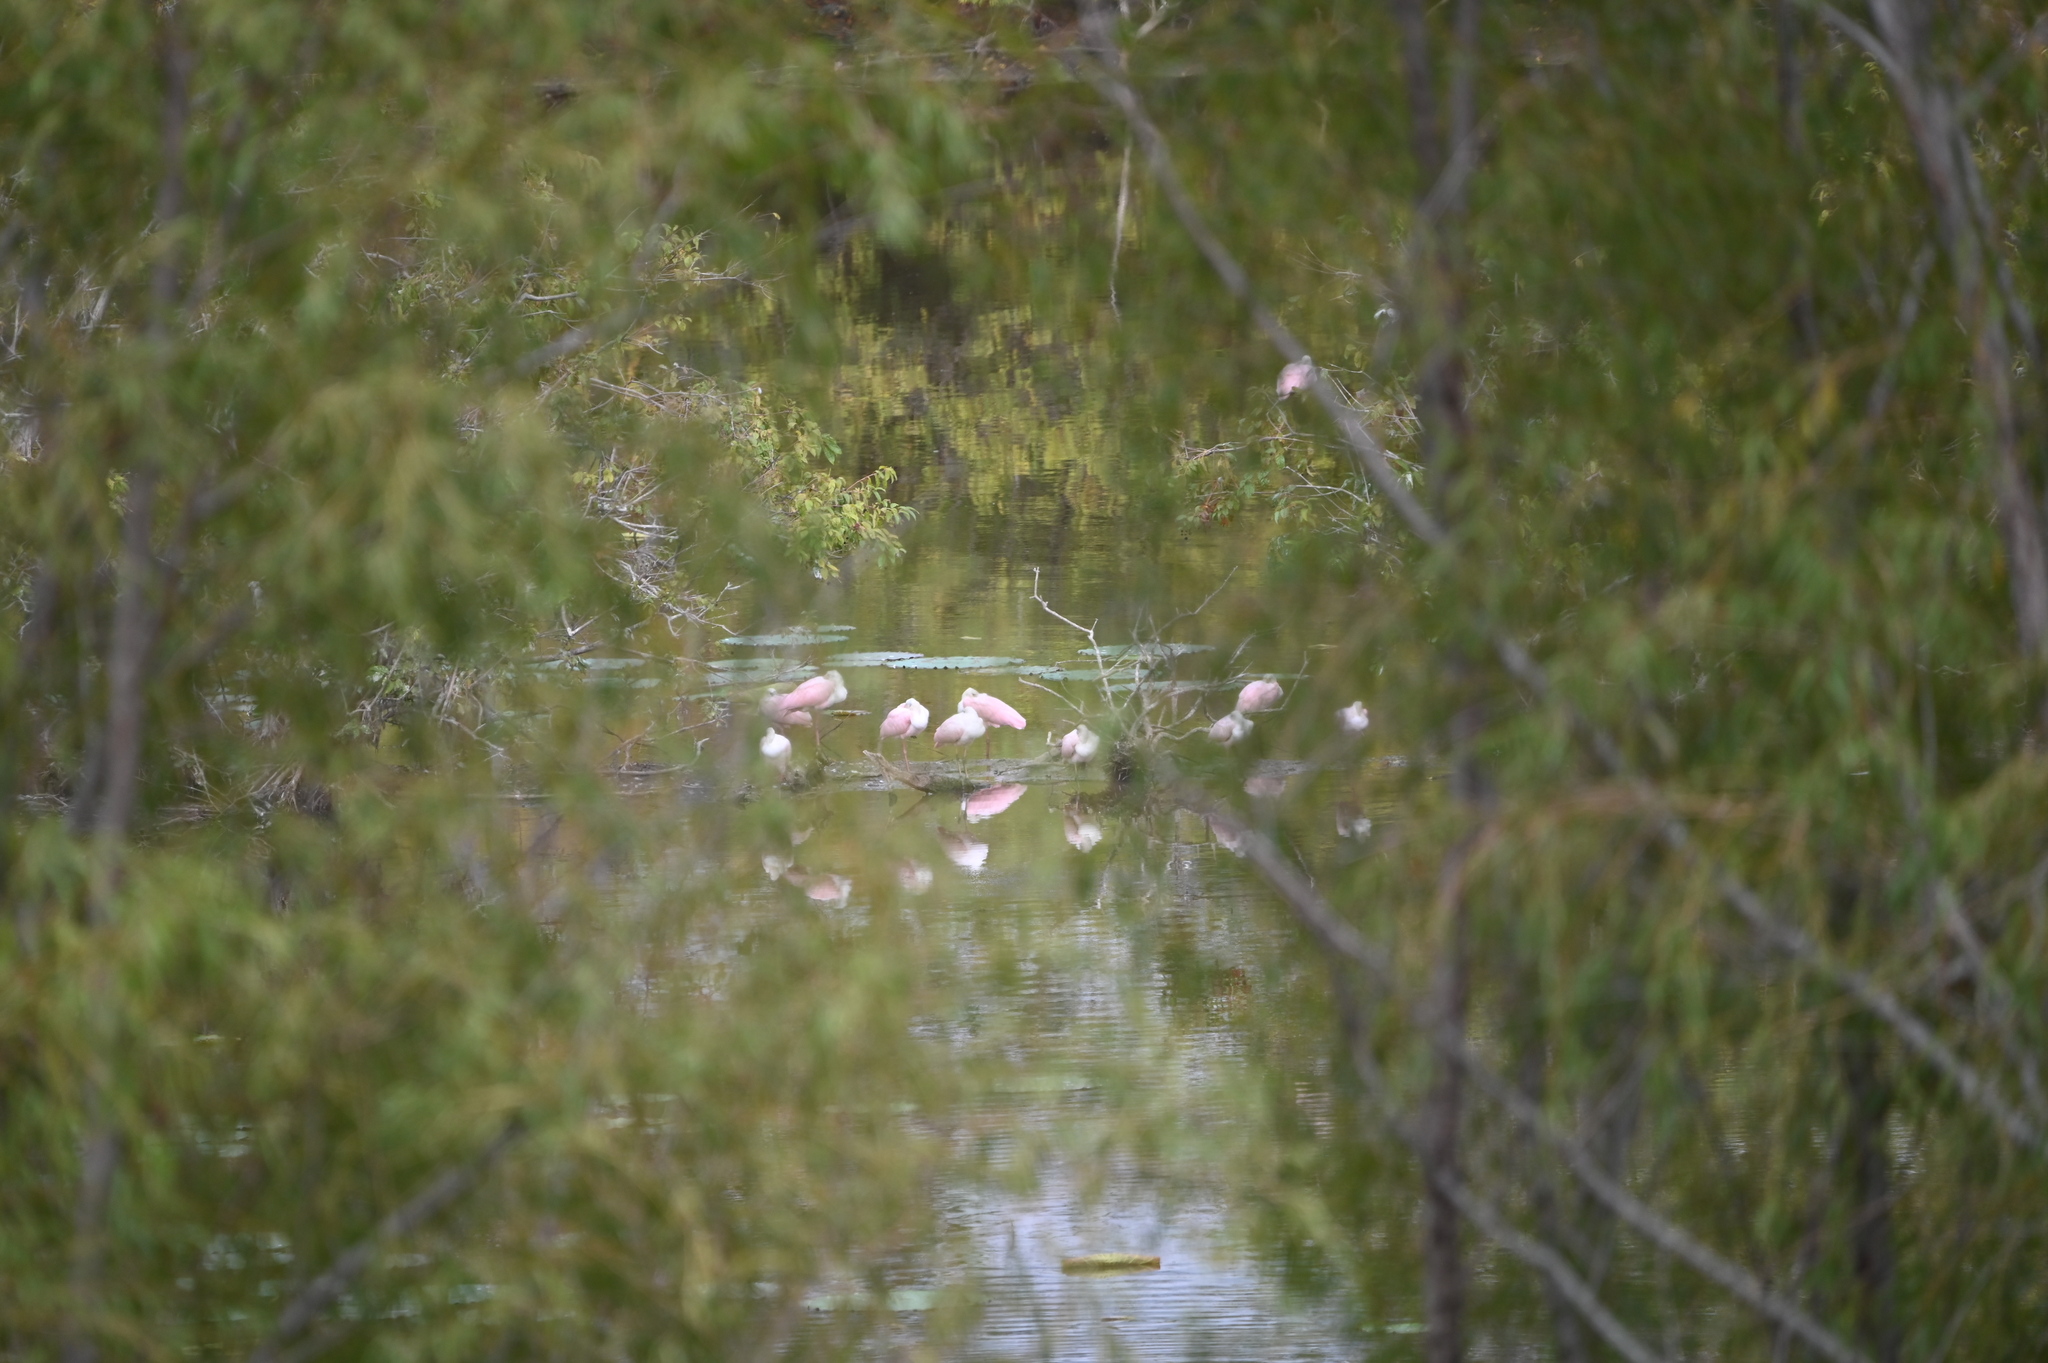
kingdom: Animalia
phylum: Chordata
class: Aves
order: Pelecaniformes
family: Threskiornithidae
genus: Platalea
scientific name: Platalea ajaja
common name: Roseate spoonbill
